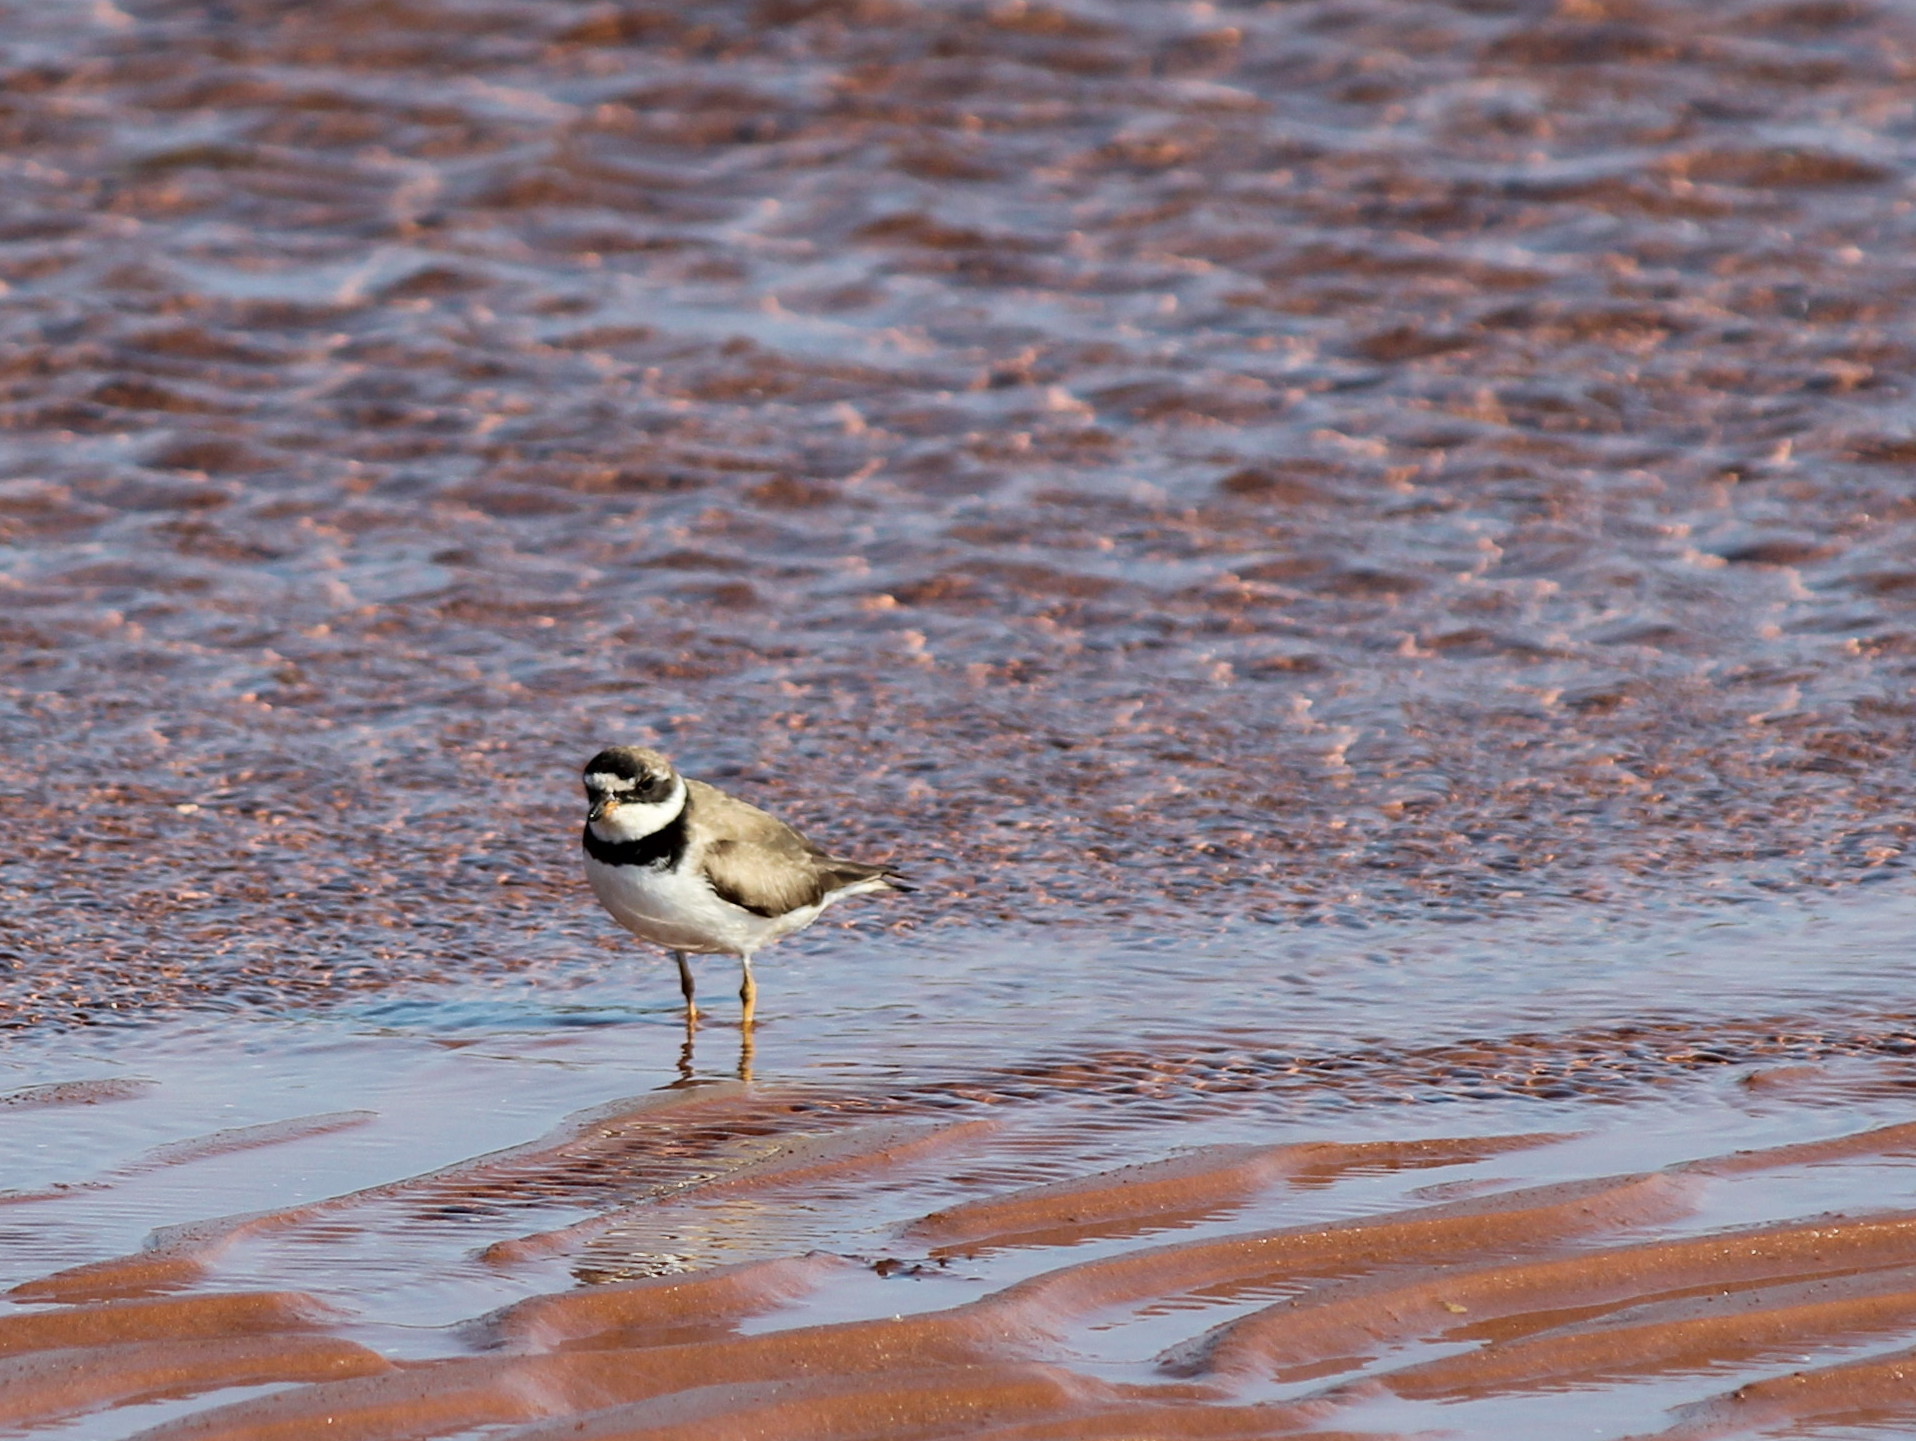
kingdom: Animalia
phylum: Chordata
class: Aves
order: Charadriiformes
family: Charadriidae
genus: Charadrius
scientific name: Charadrius semipalmatus
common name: Semipalmated plover
